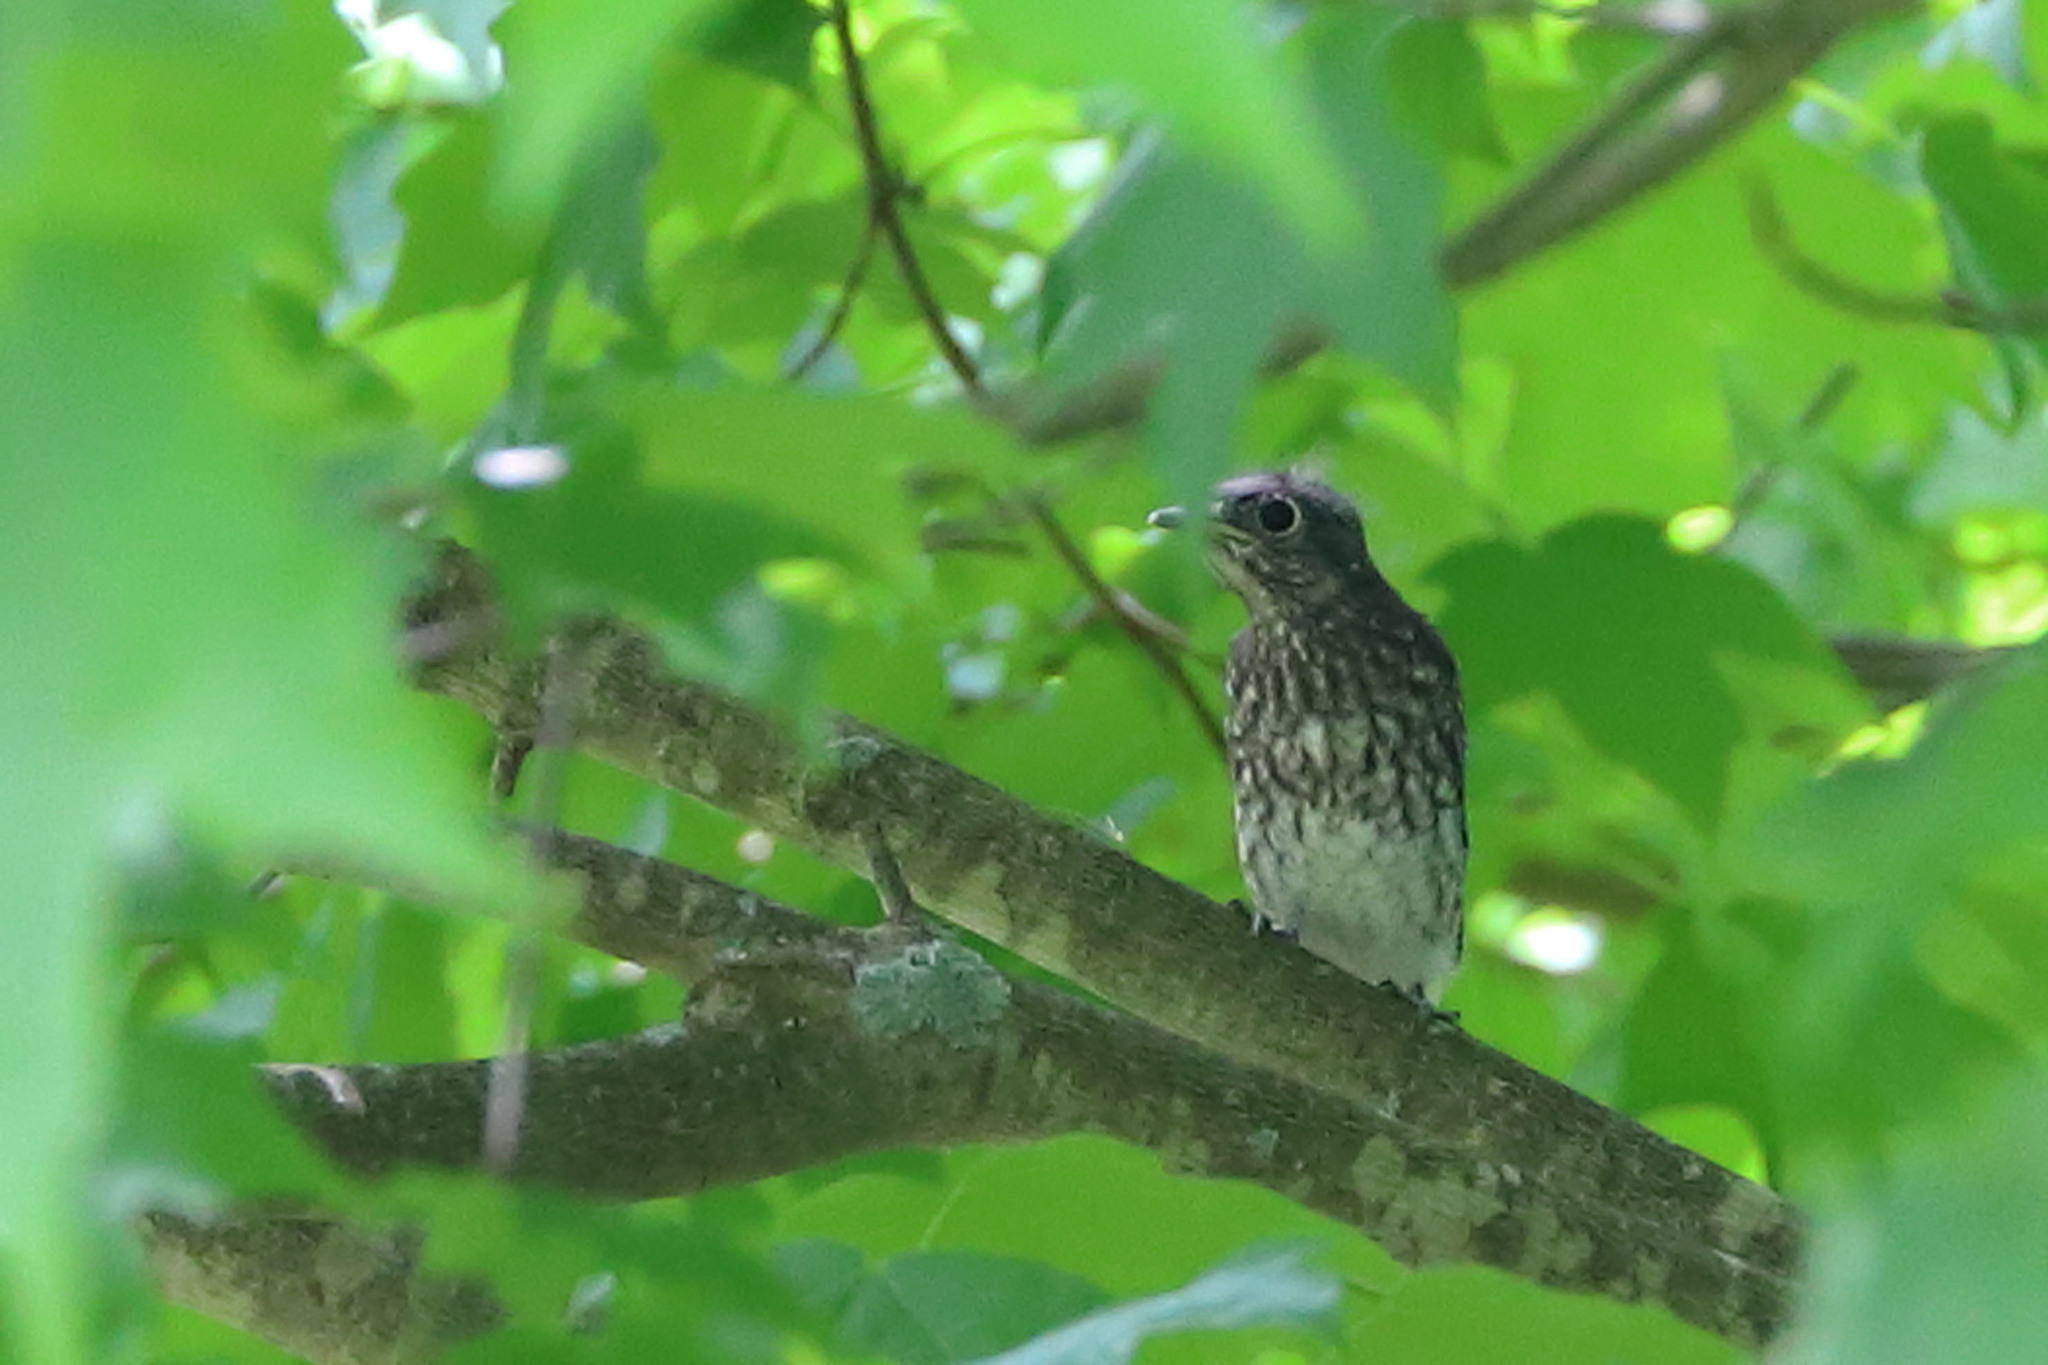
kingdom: Animalia
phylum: Chordata
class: Aves
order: Passeriformes
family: Turdidae
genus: Sialia
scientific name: Sialia sialis
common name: Eastern bluebird
